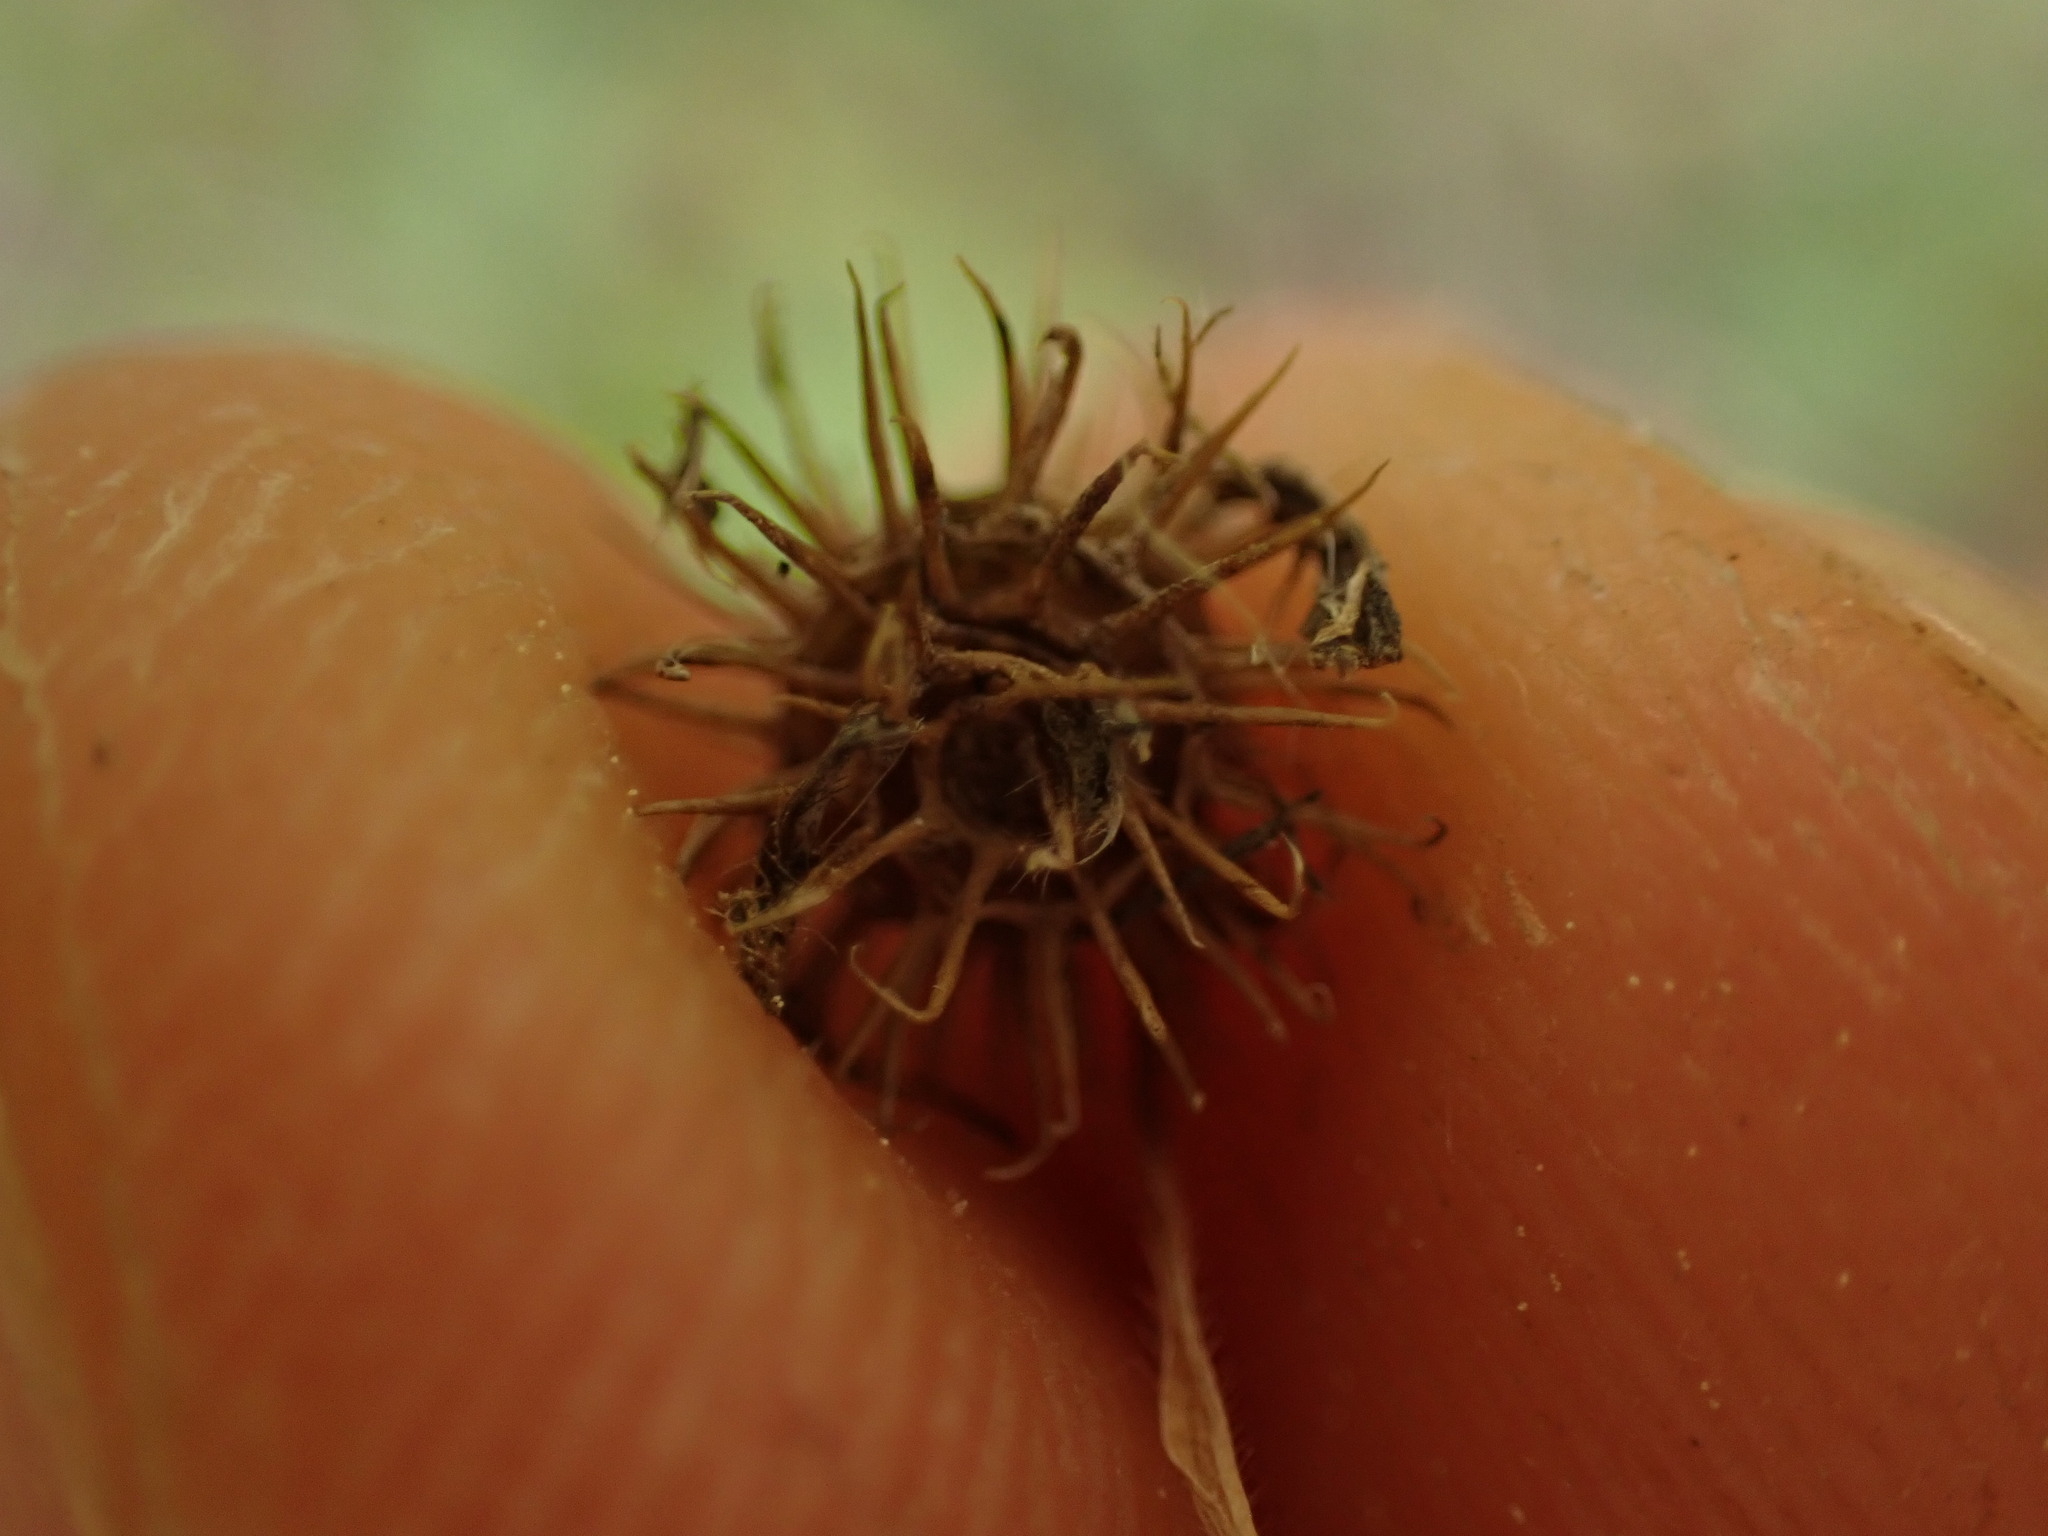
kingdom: Plantae
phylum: Tracheophyta
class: Magnoliopsida
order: Fabales
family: Fabaceae
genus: Medicago
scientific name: Medicago minima
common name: Little bur-clover
